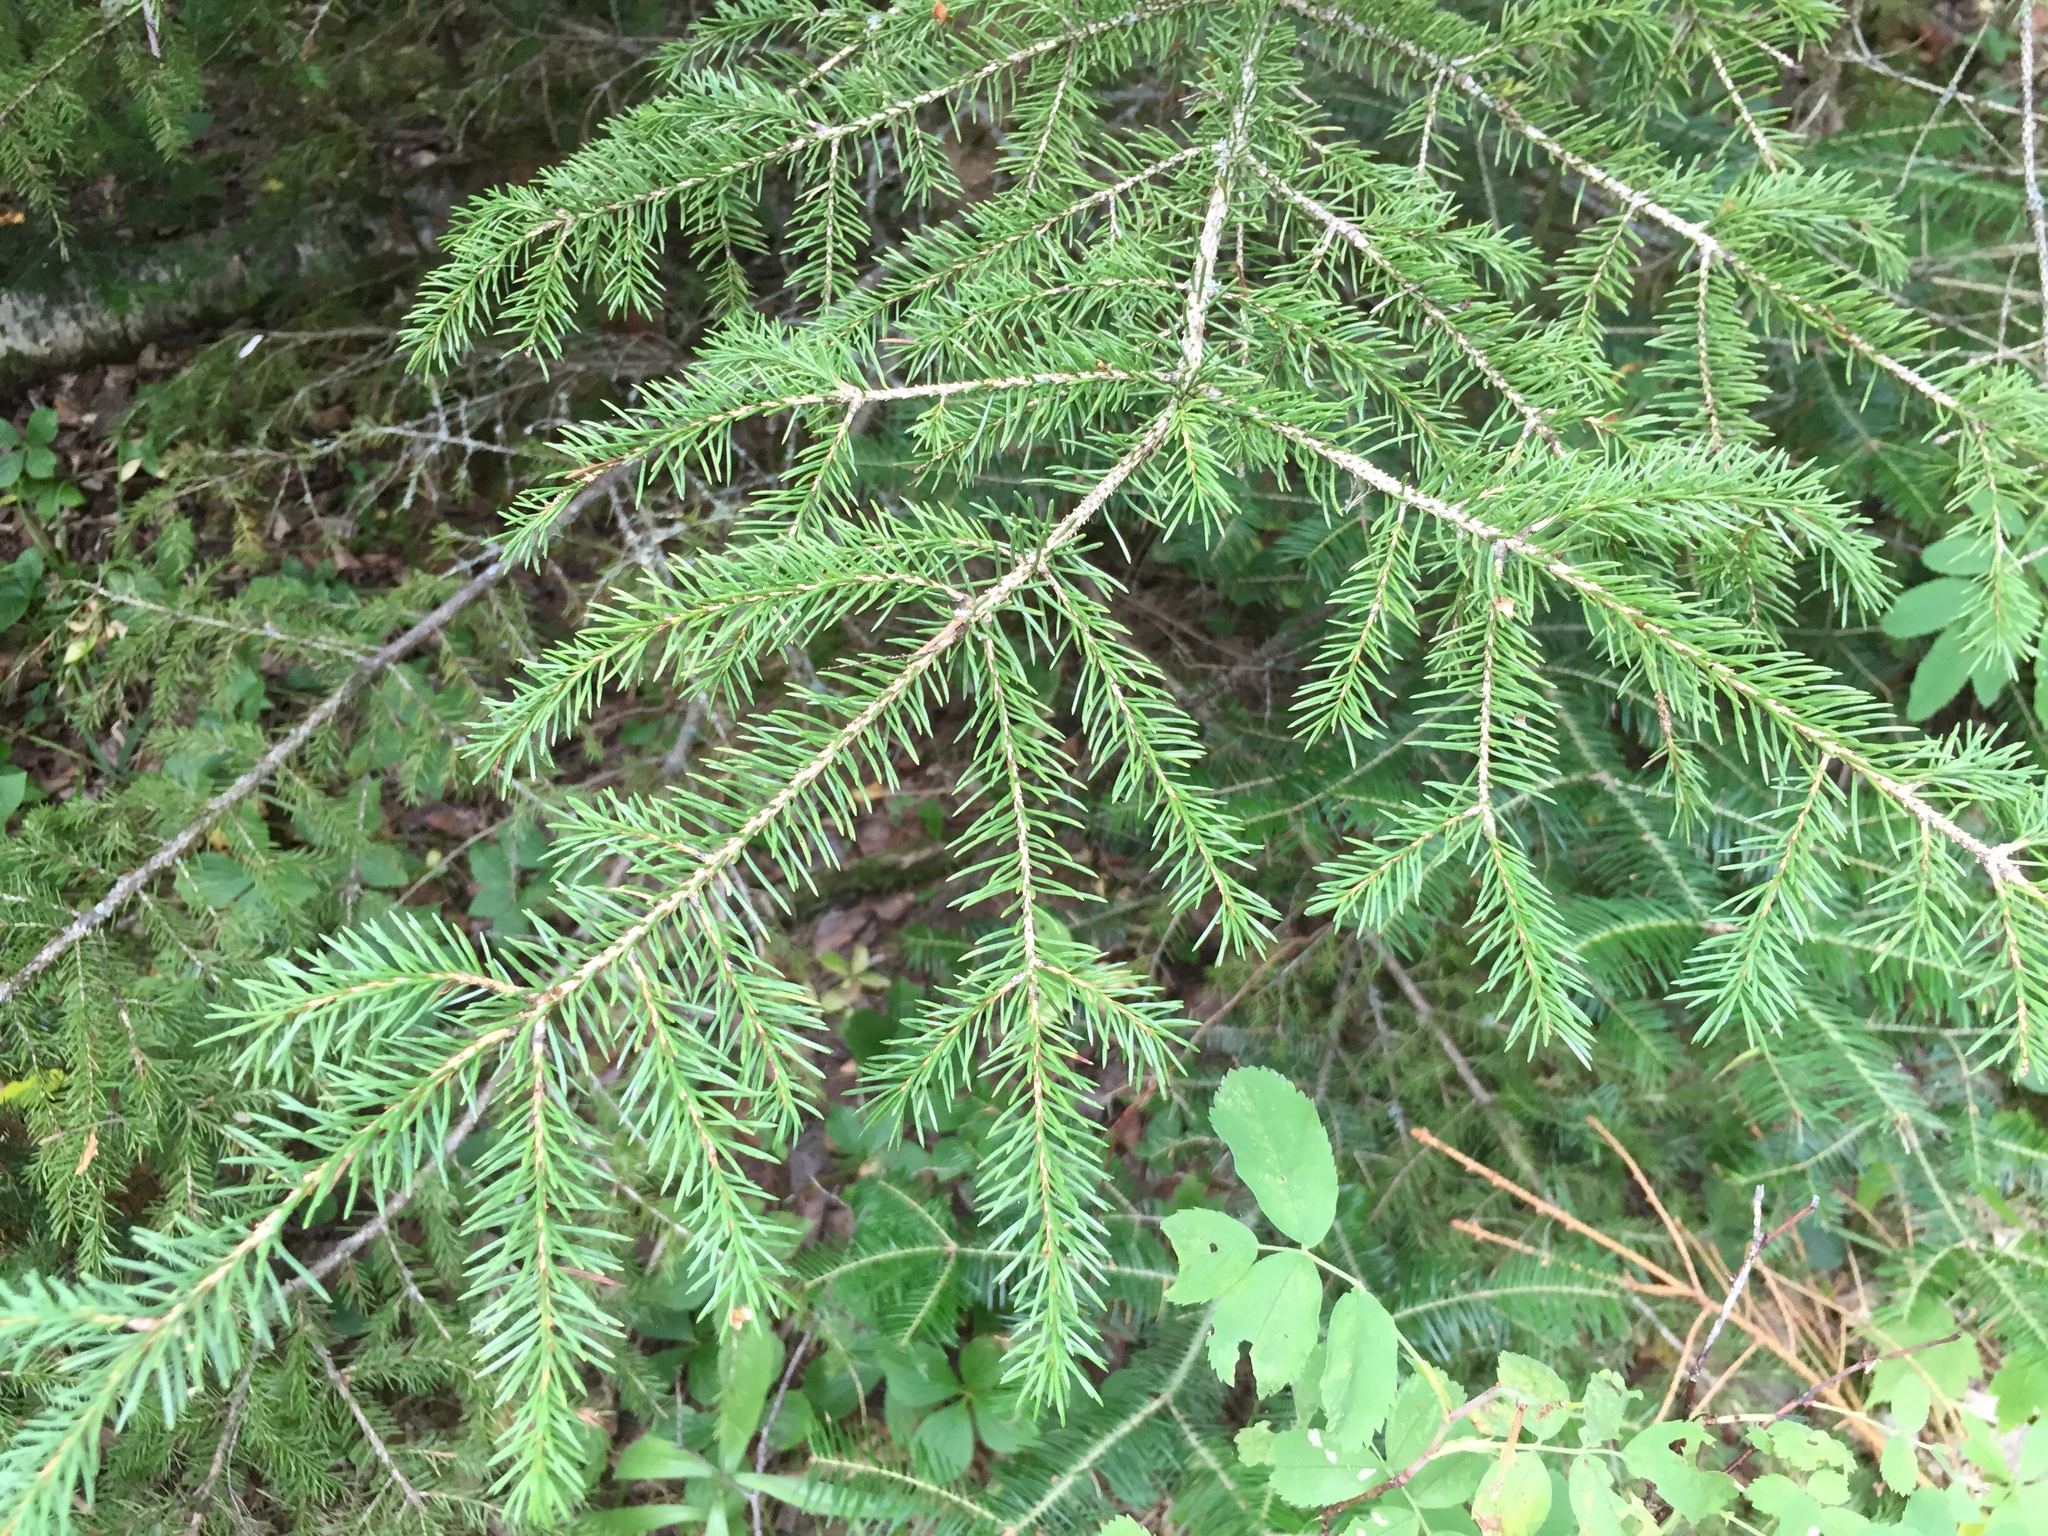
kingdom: Plantae
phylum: Tracheophyta
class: Pinopsida
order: Pinales
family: Pinaceae
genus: Picea
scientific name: Picea glauca
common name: White spruce
